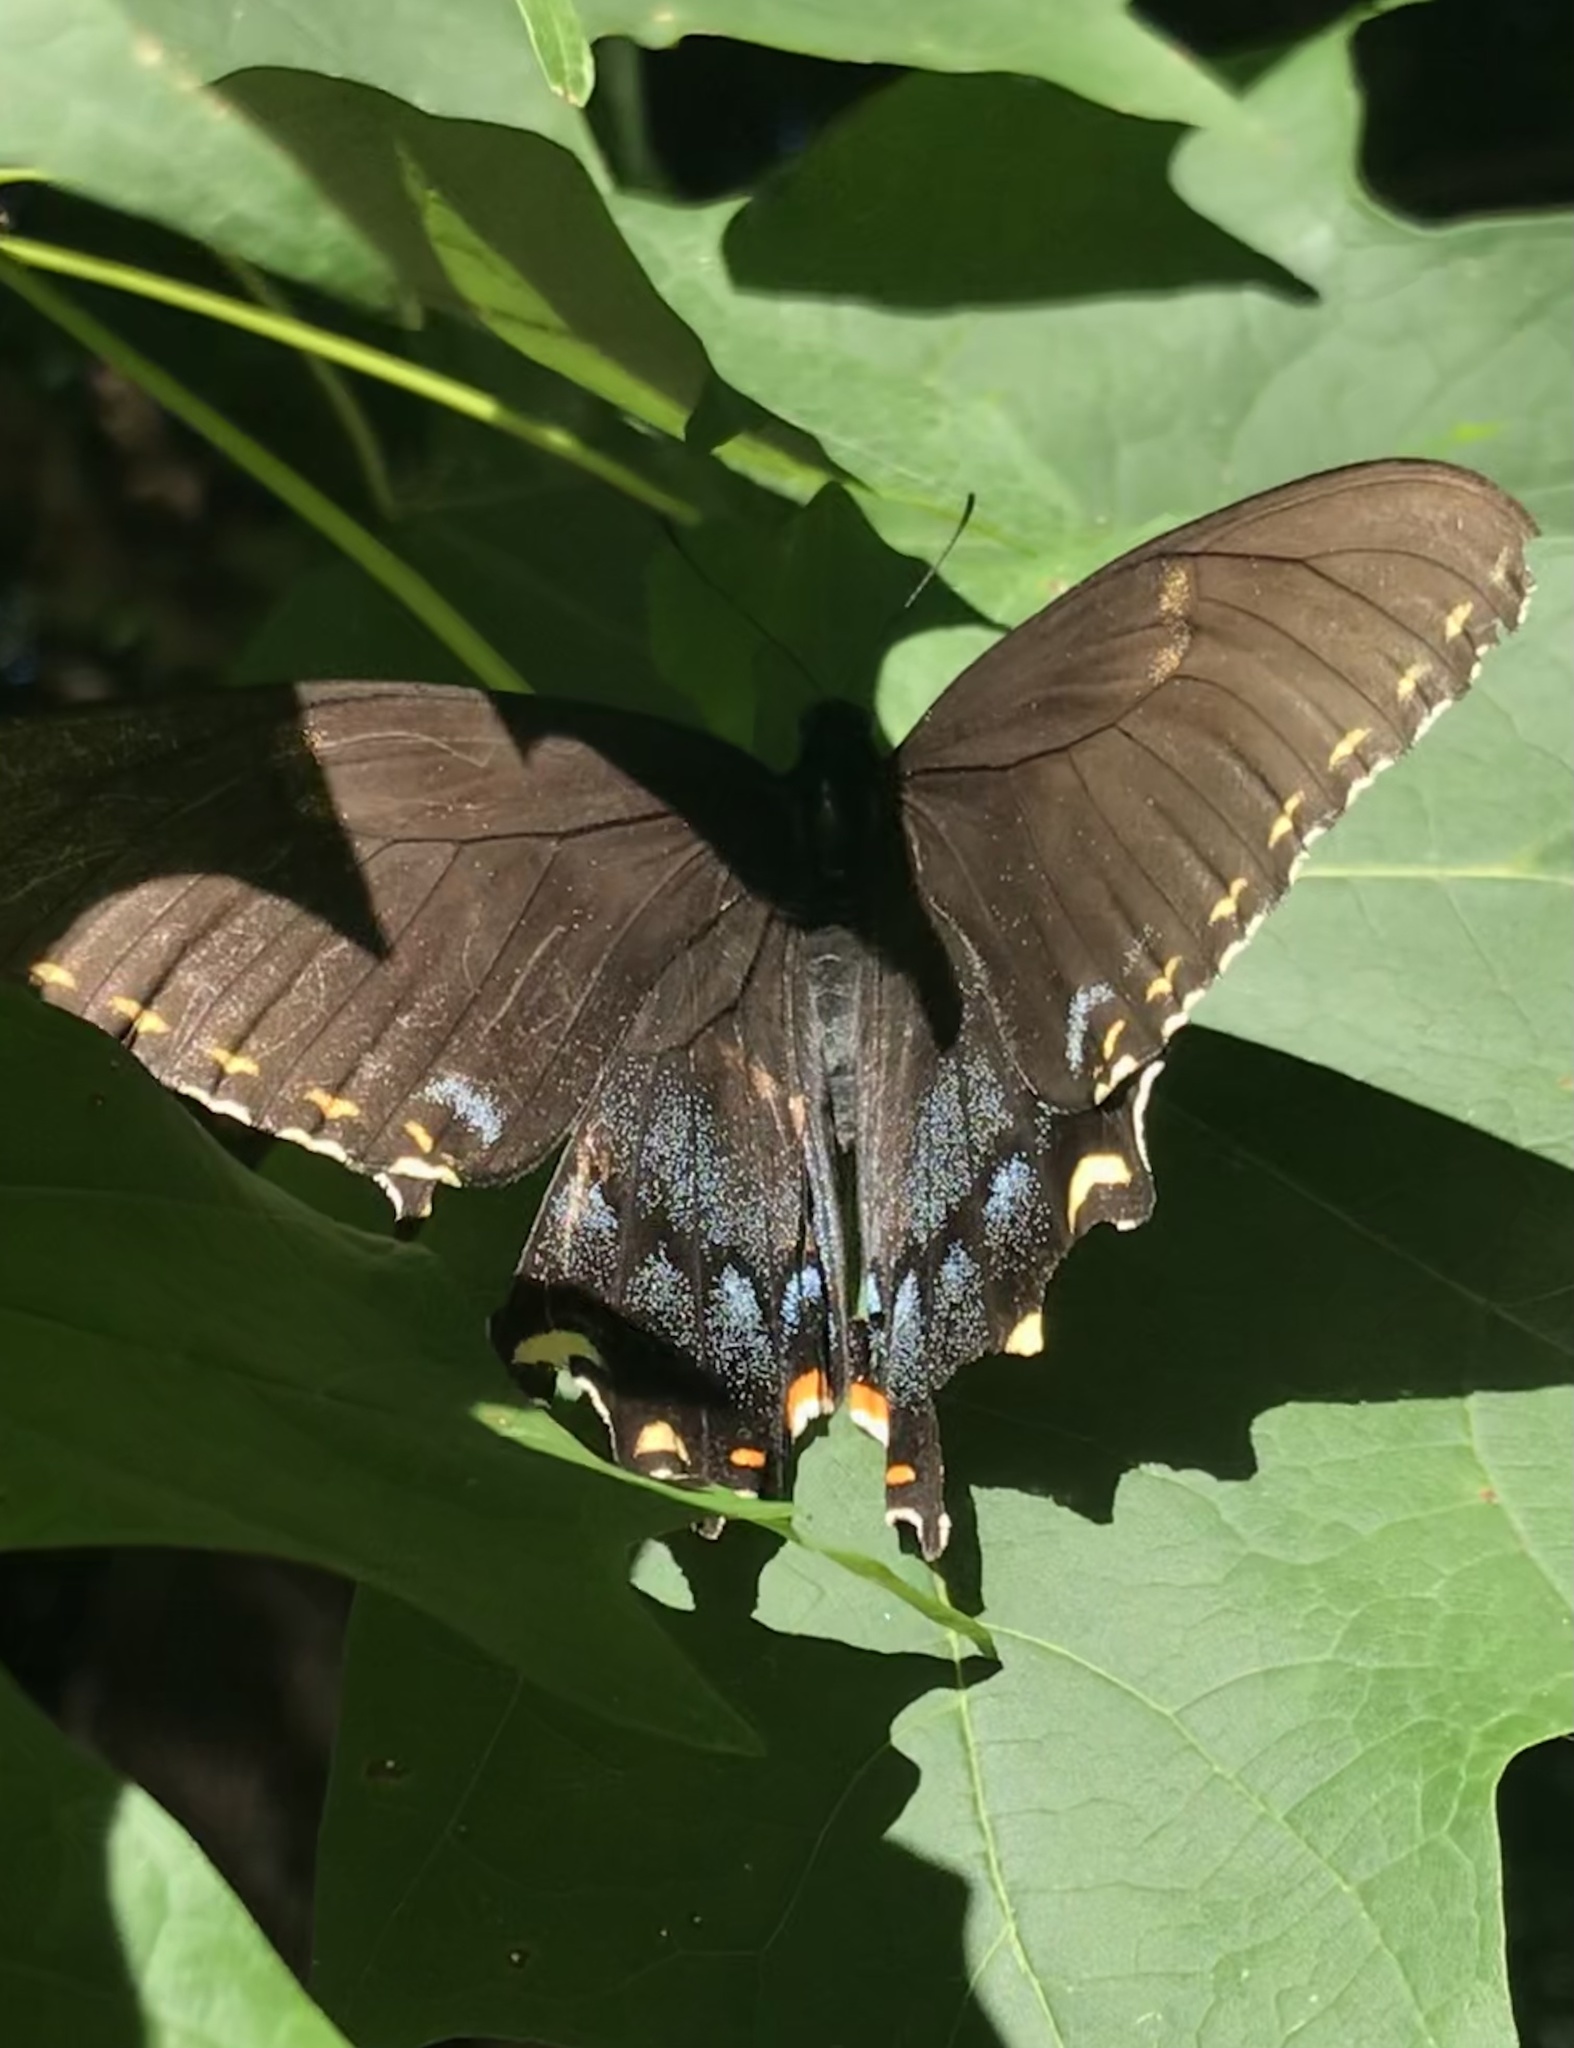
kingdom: Animalia
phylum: Arthropoda
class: Insecta
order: Lepidoptera
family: Papilionidae
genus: Papilio
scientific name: Papilio glaucus
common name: Tiger swallowtail
